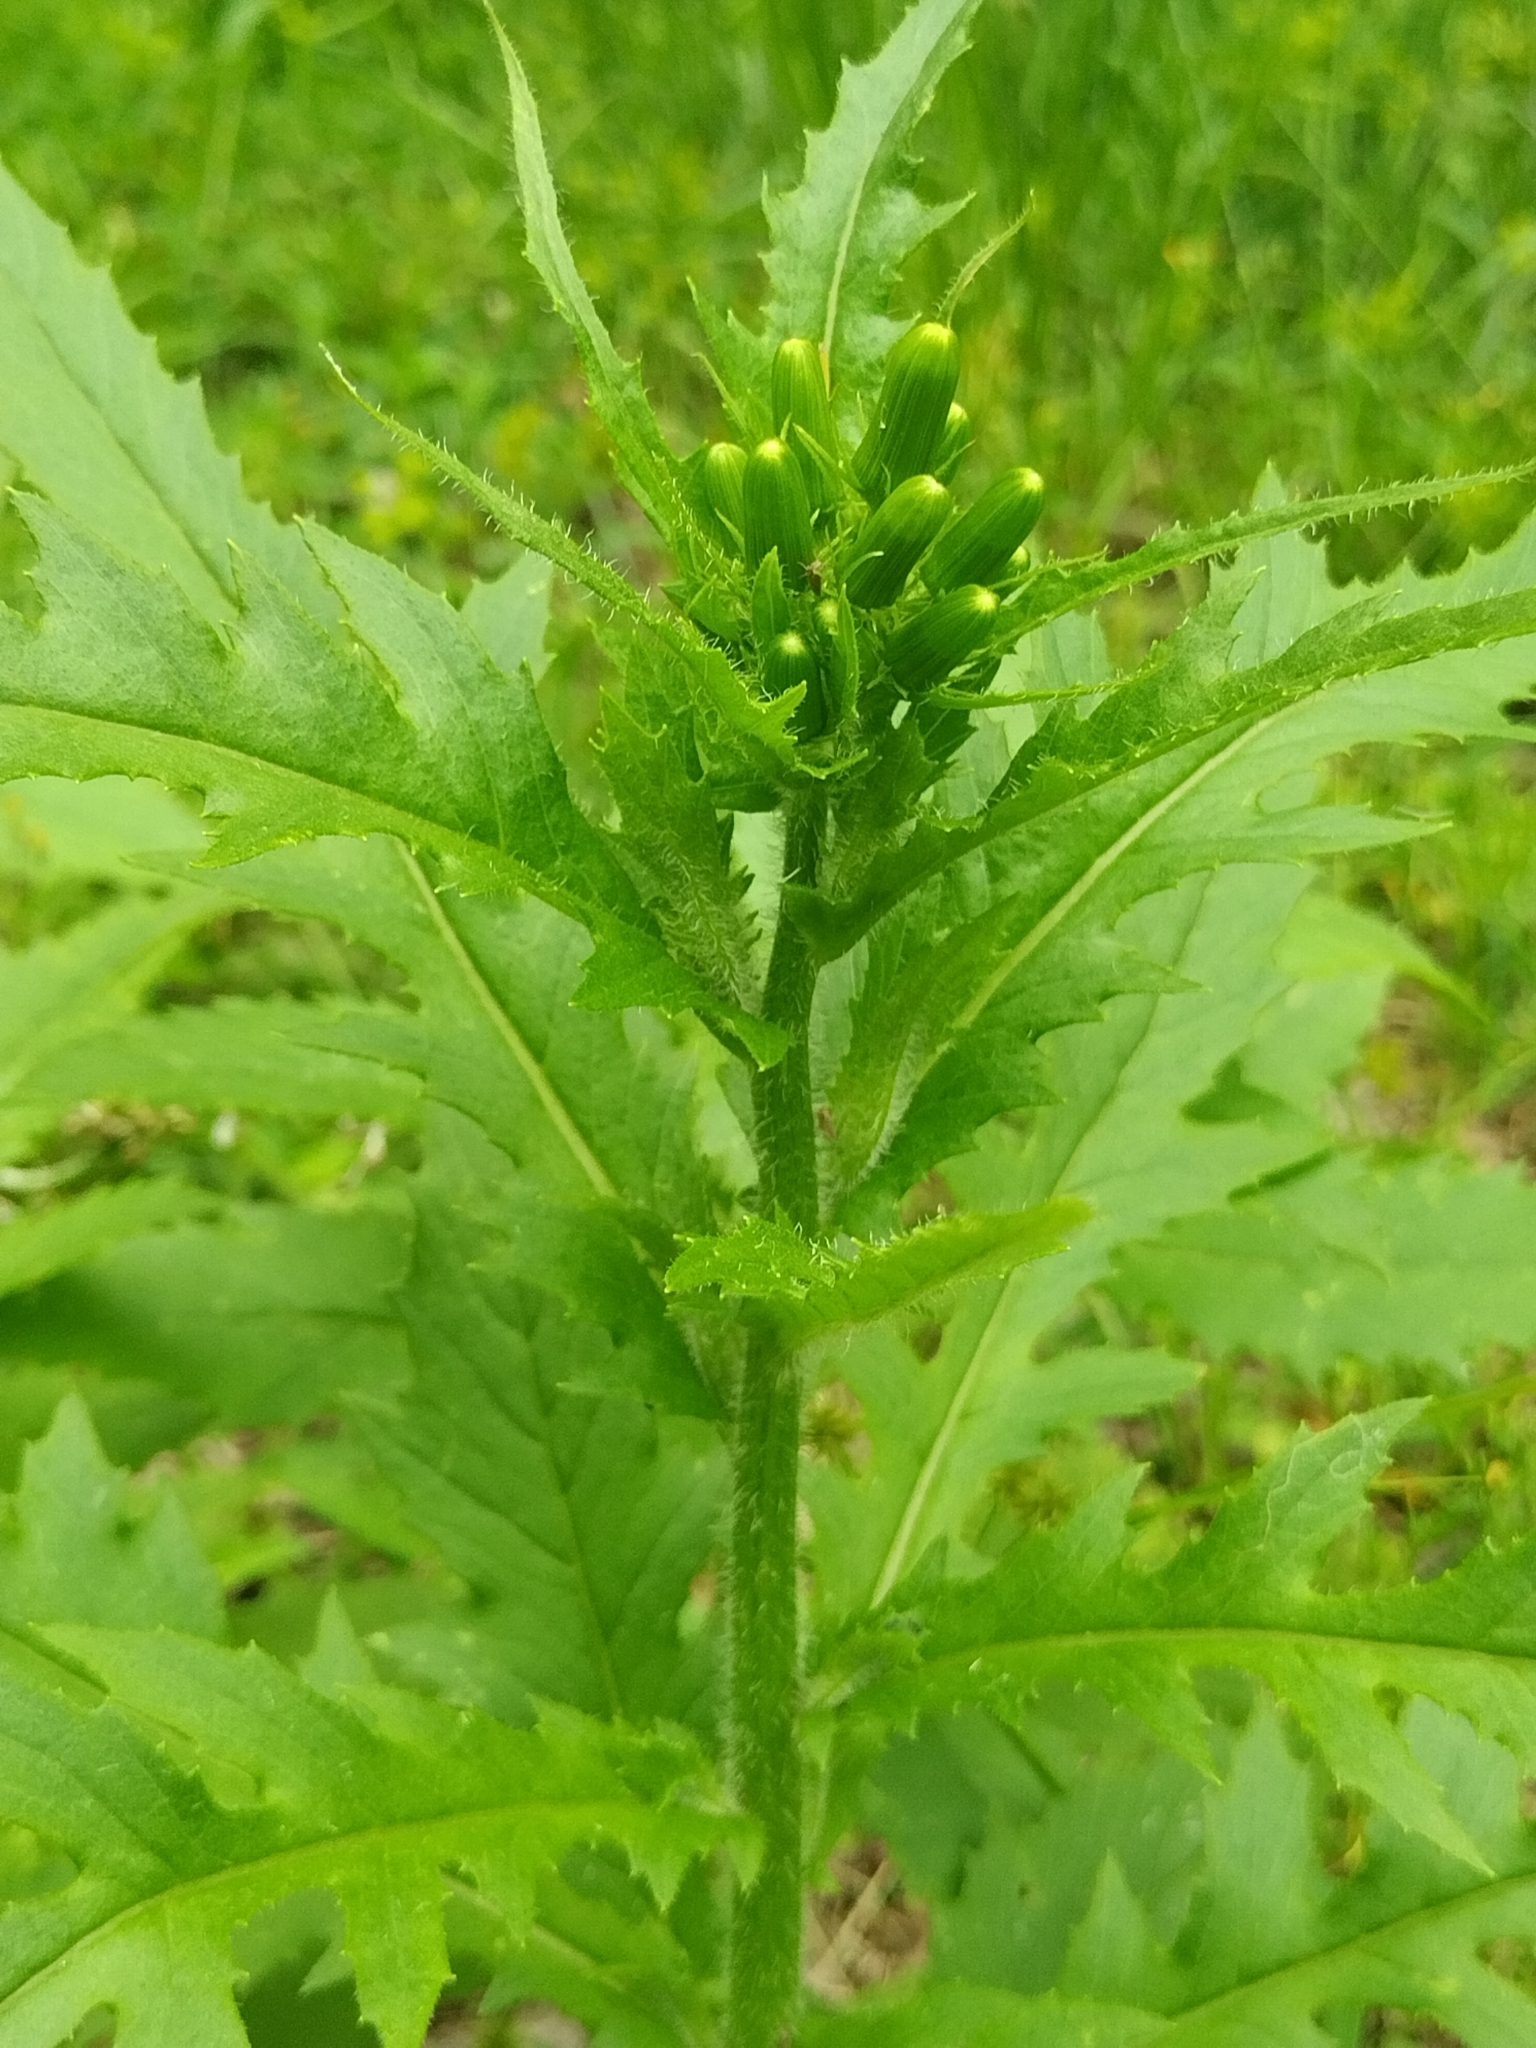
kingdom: Plantae
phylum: Tracheophyta
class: Magnoliopsida
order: Asterales
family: Asteraceae
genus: Erechtites
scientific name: Erechtites hieraciifolius
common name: American burnweed
